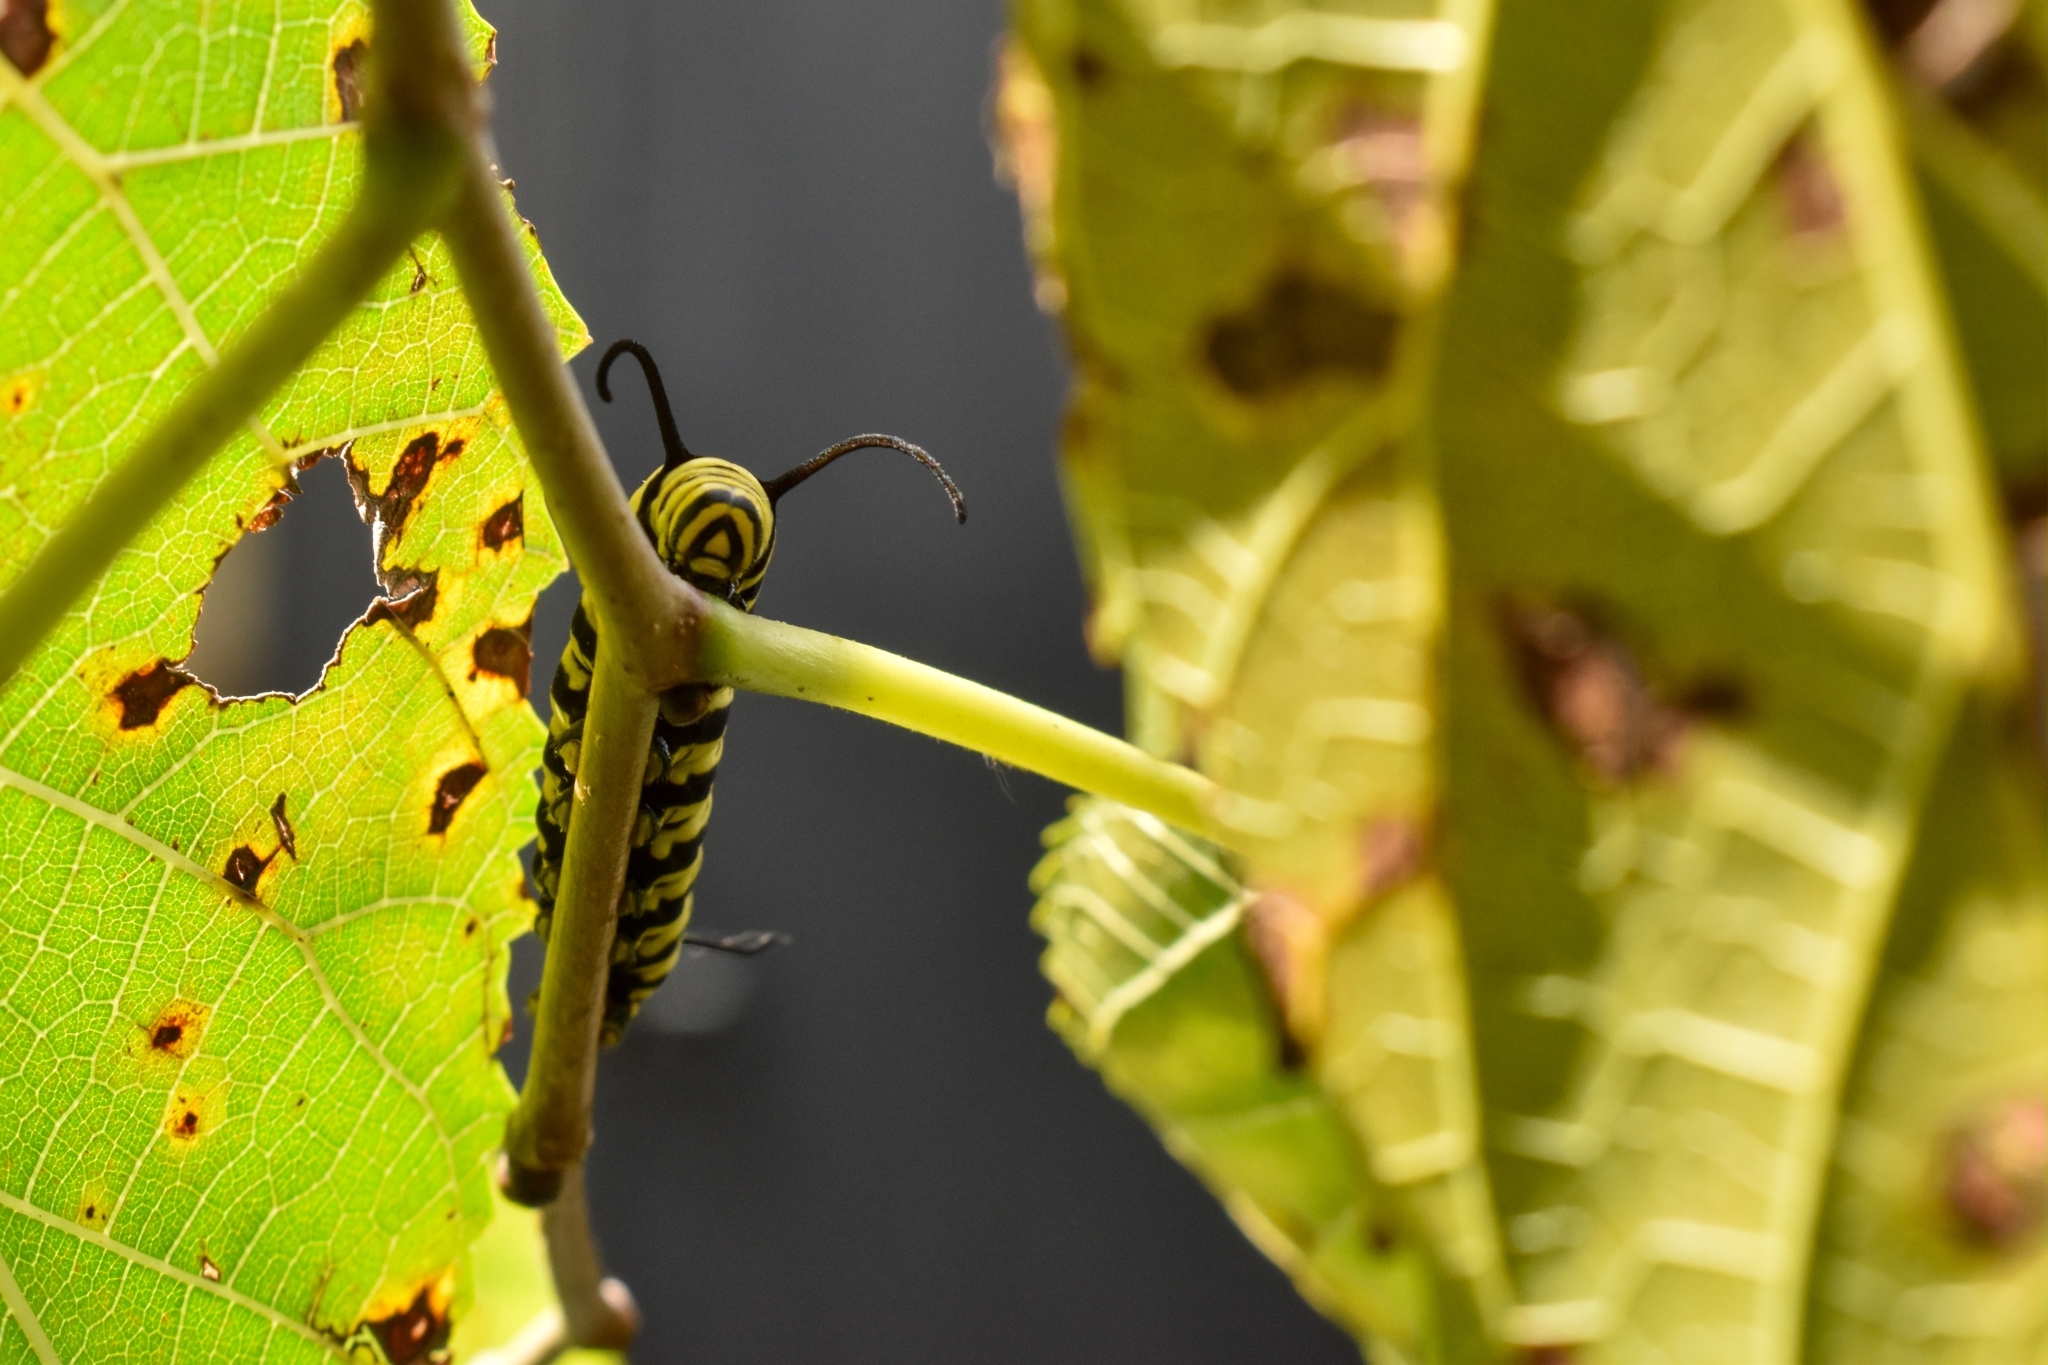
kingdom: Animalia
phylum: Arthropoda
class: Insecta
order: Lepidoptera
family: Nymphalidae
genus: Danaus
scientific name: Danaus erippus
